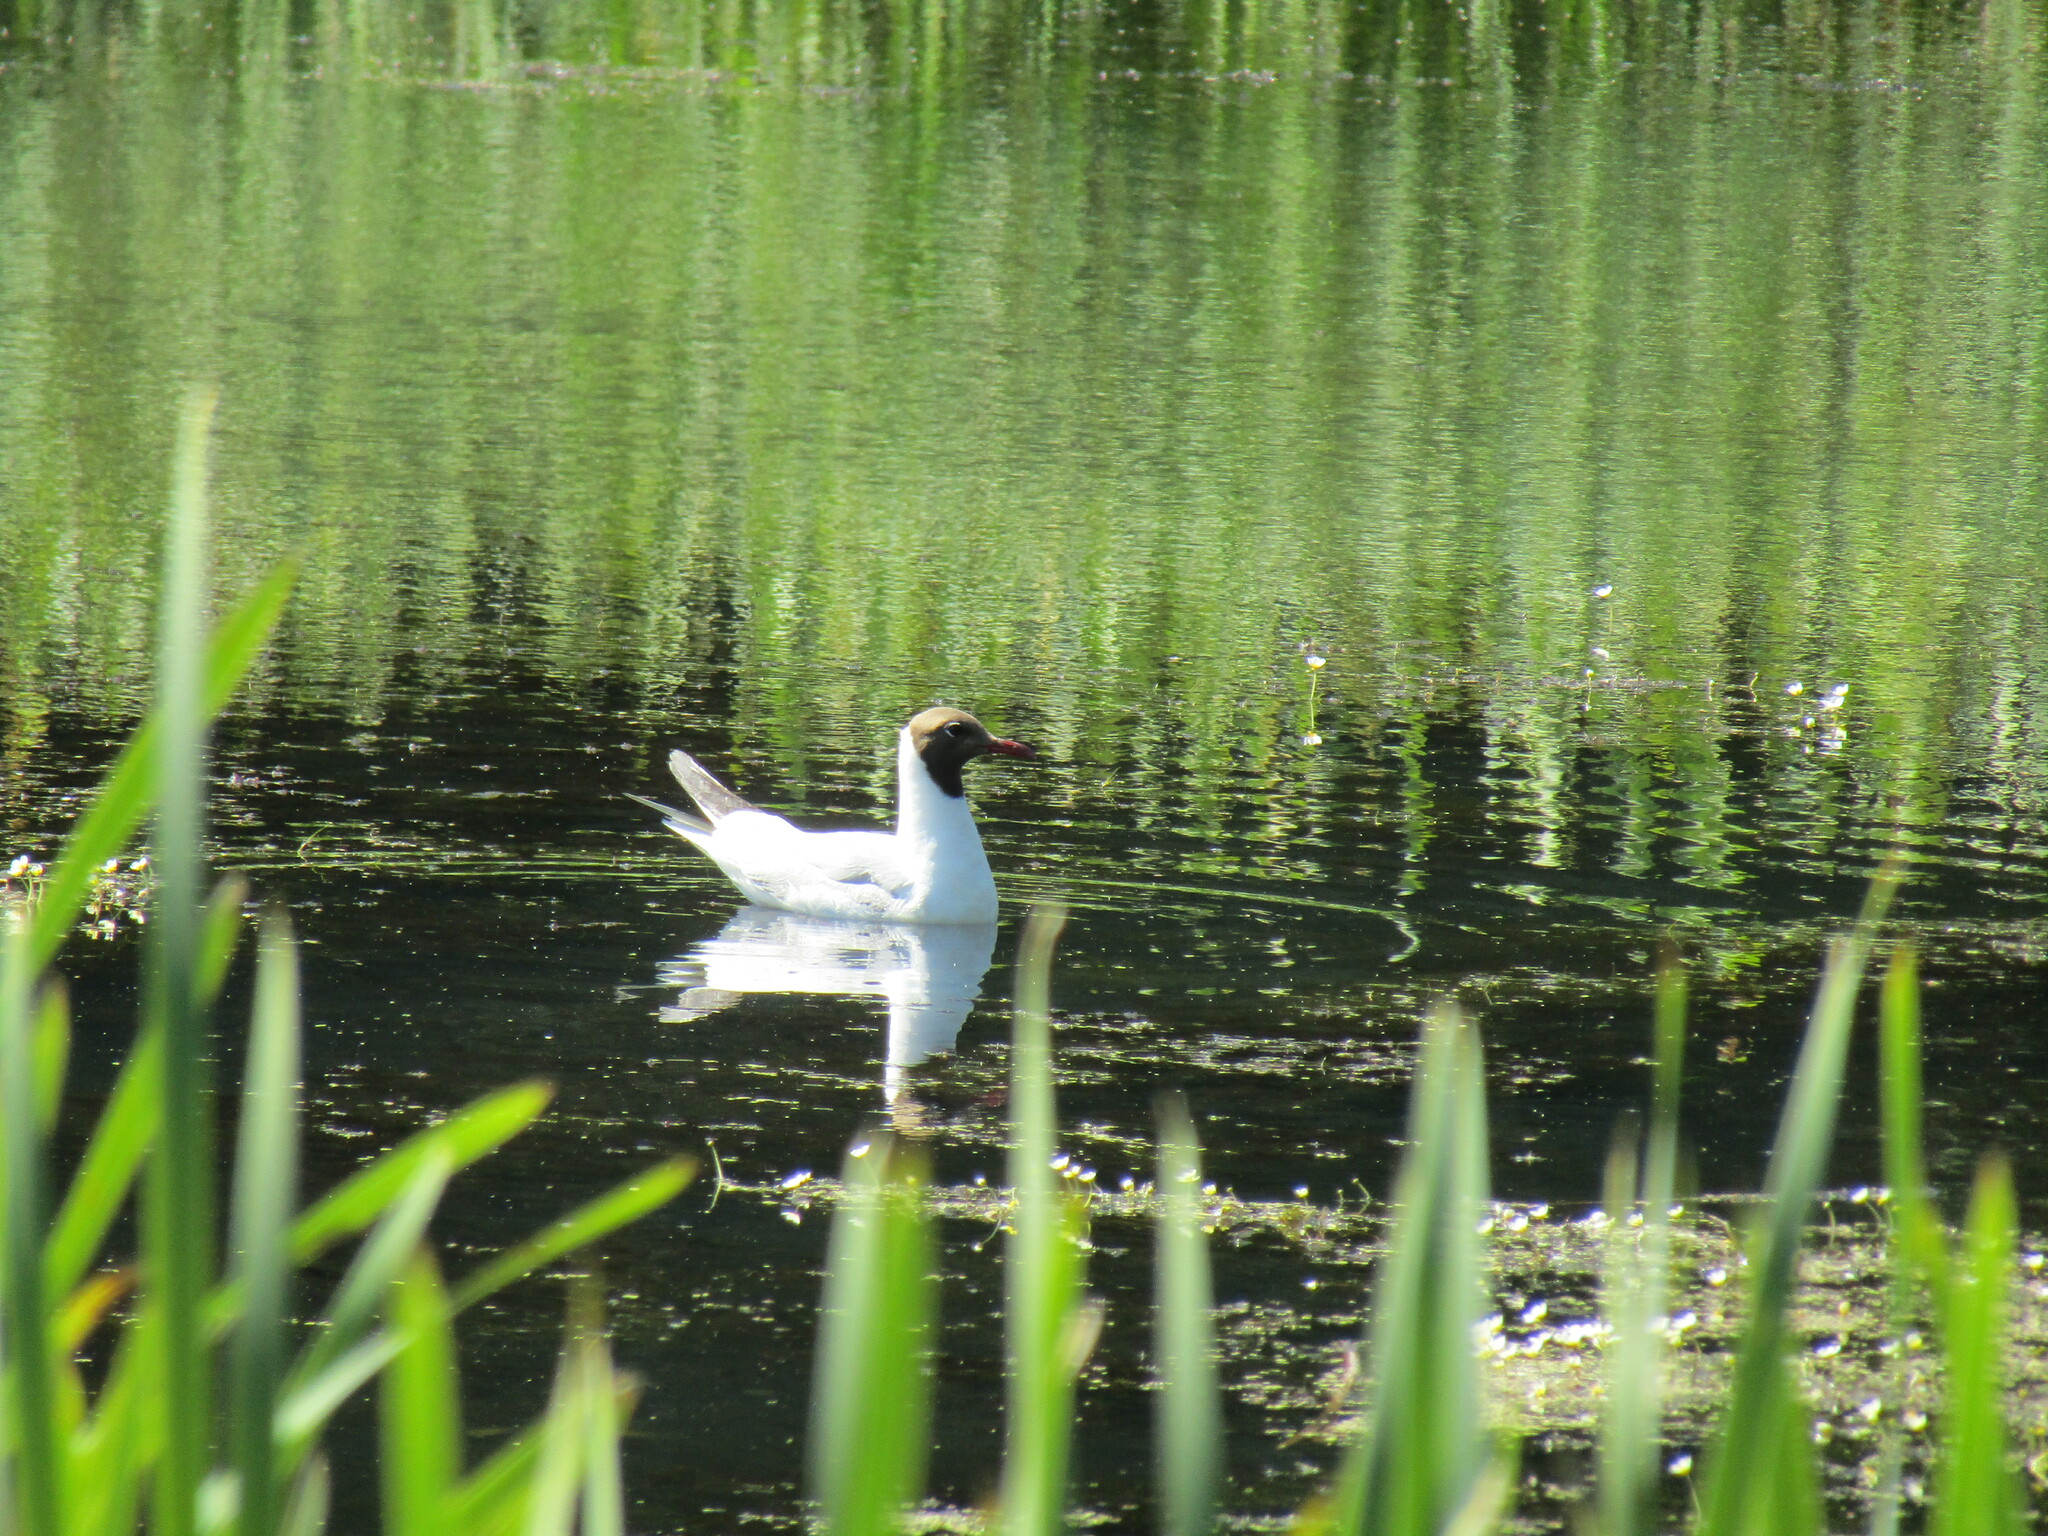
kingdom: Animalia
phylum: Chordata
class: Aves
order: Charadriiformes
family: Laridae
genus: Chroicocephalus
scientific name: Chroicocephalus ridibundus
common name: Black-headed gull
